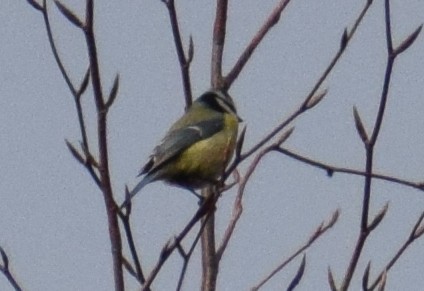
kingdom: Animalia
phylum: Chordata
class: Aves
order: Passeriformes
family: Paridae
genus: Cyanistes
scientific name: Cyanistes caeruleus
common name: Eurasian blue tit
